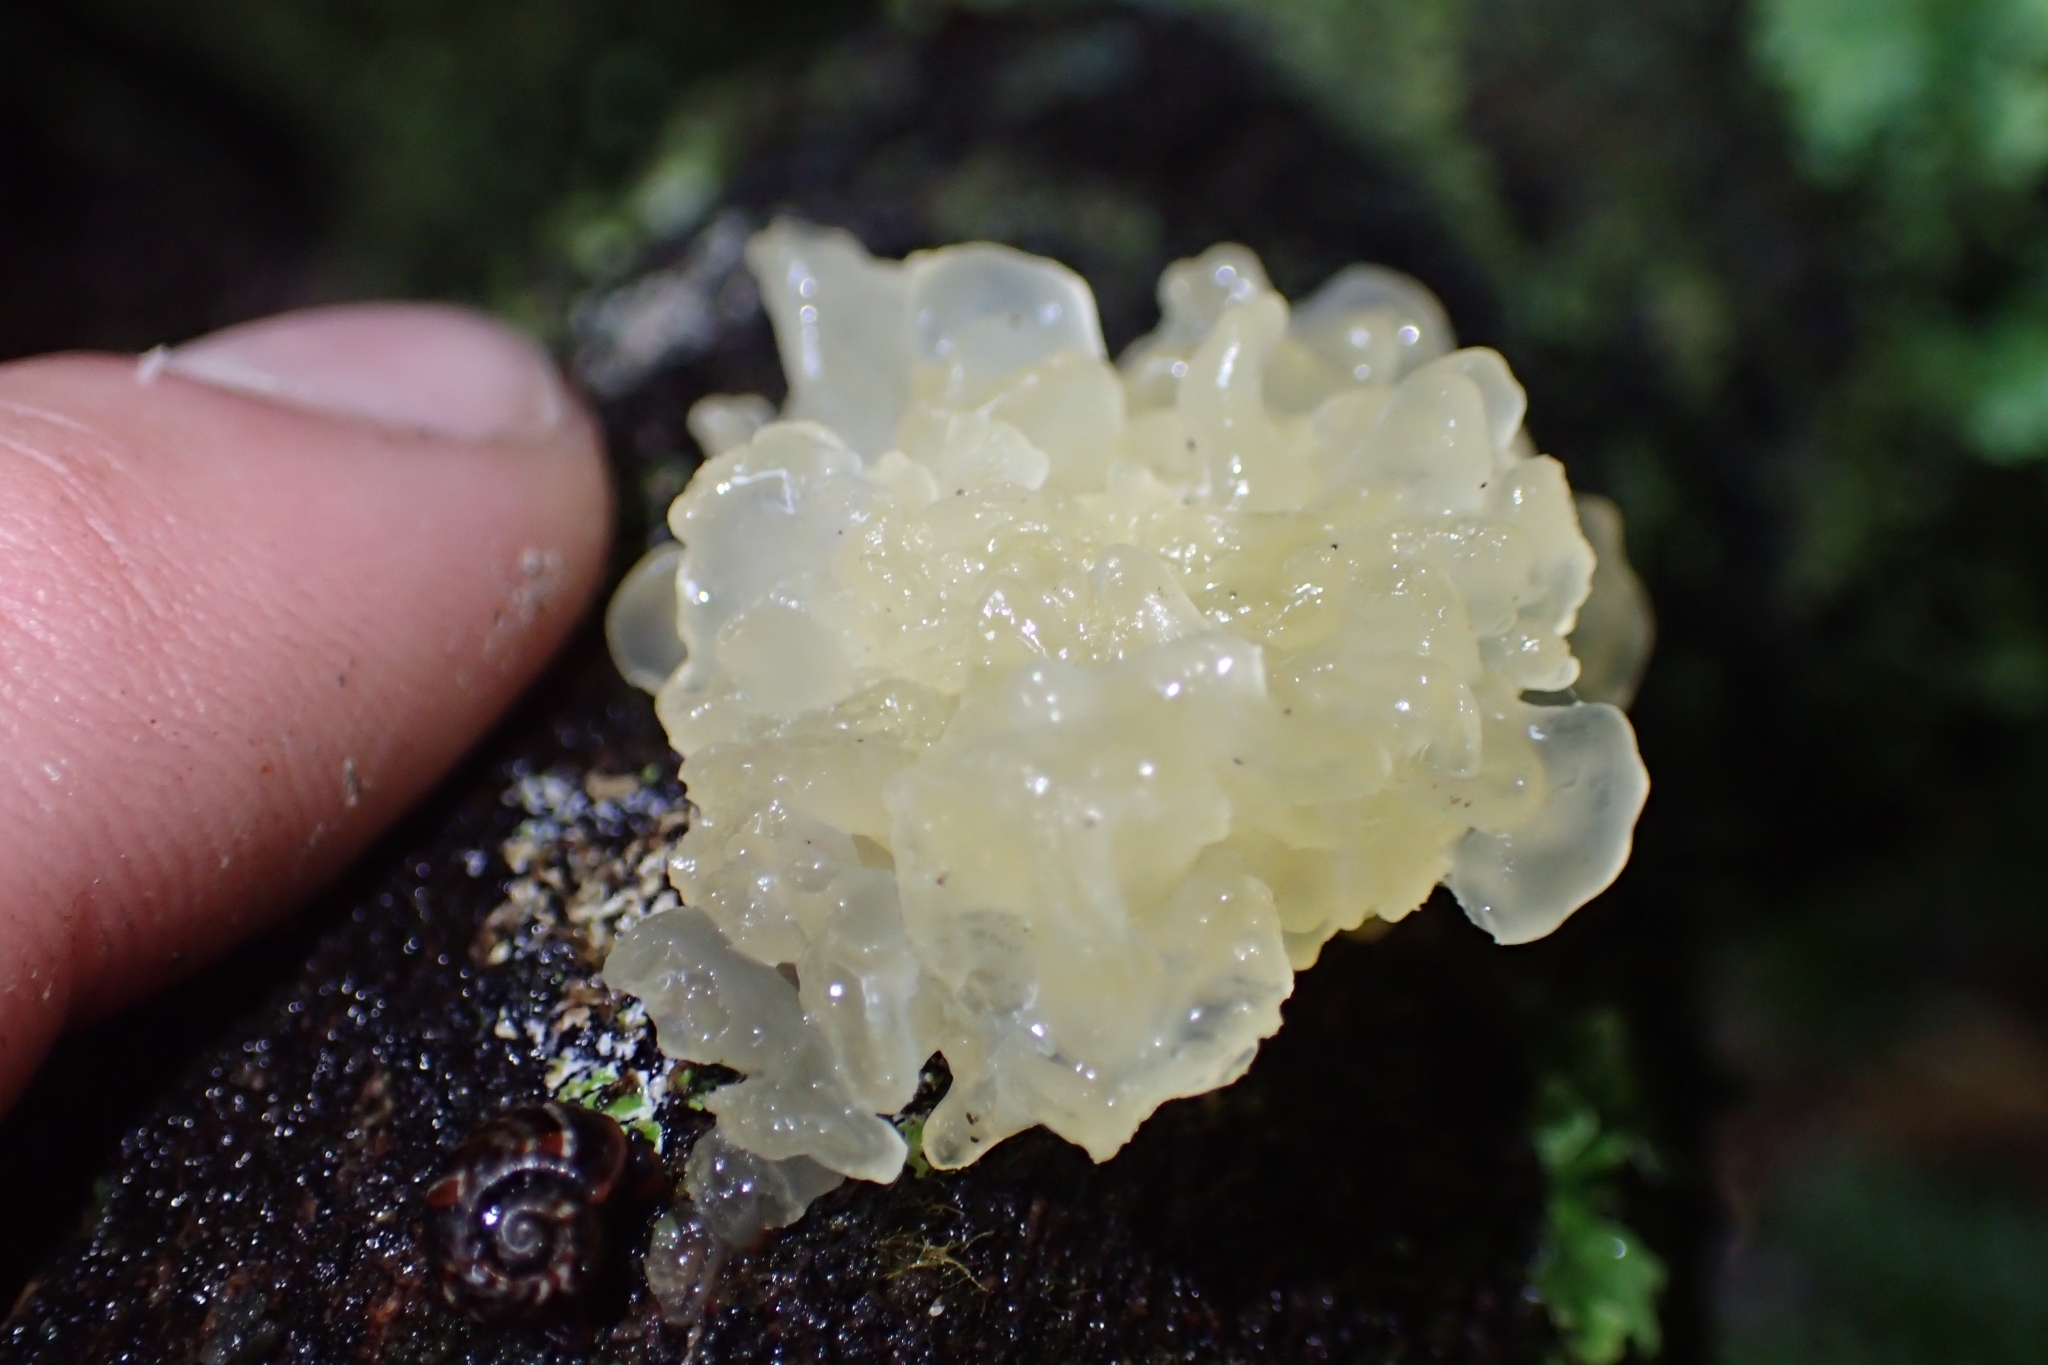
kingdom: Fungi
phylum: Basidiomycota
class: Tremellomycetes
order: Tremellales
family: Tremellaceae
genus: Tremella
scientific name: Tremella fuciformis
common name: Snow fungus
